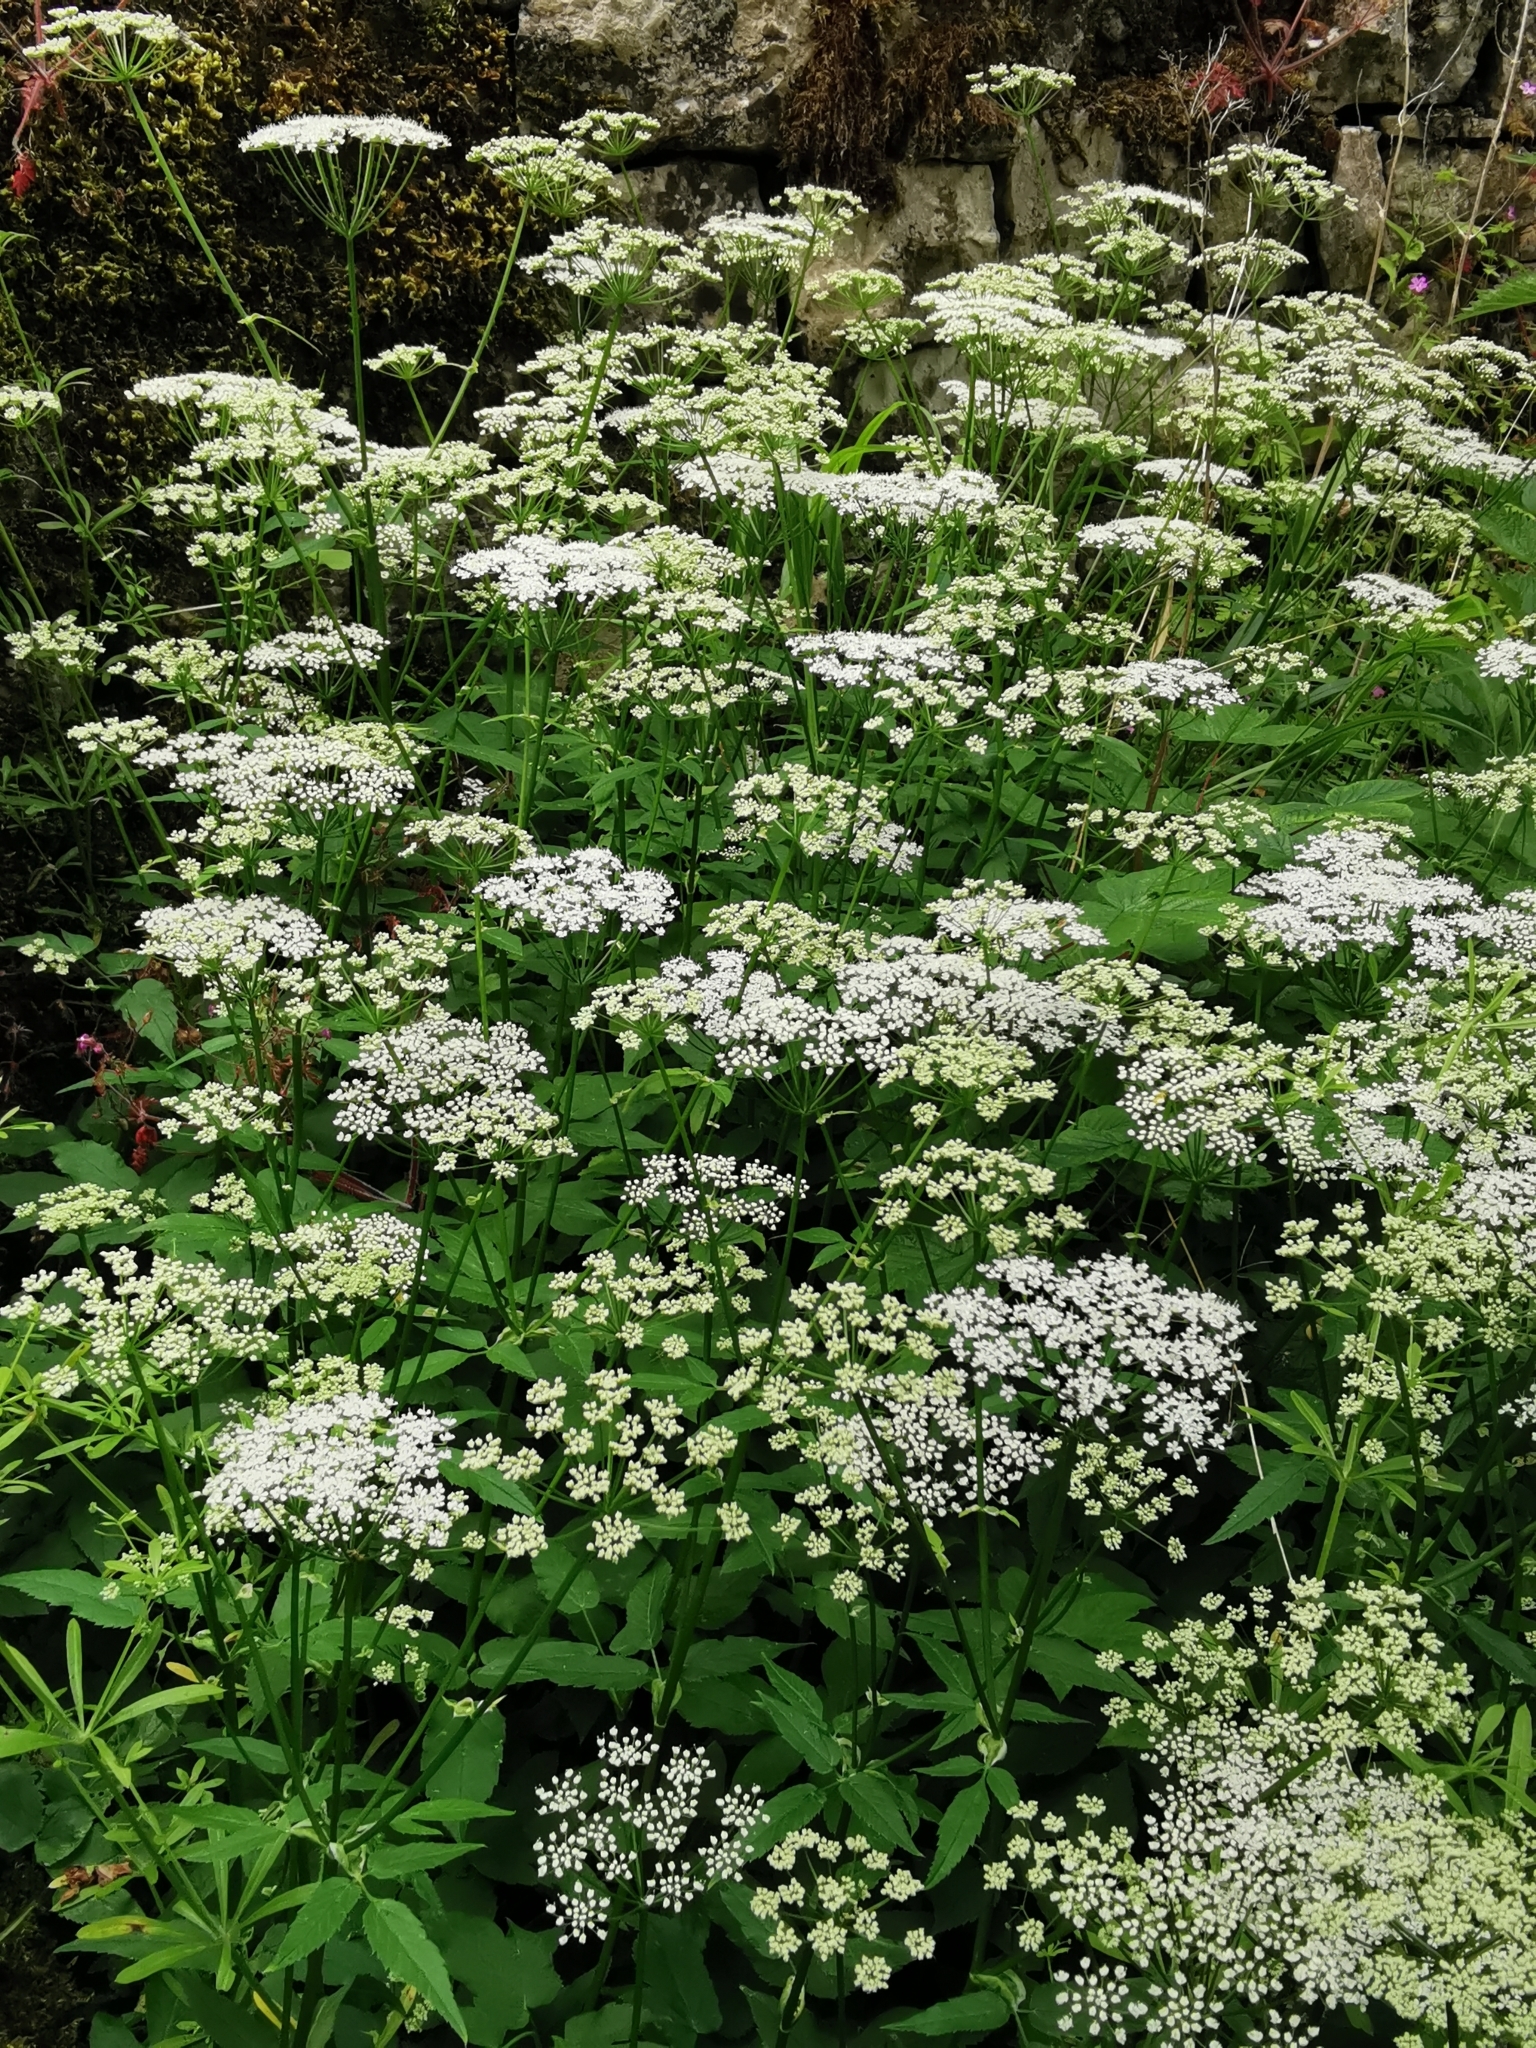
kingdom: Plantae
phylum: Tracheophyta
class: Magnoliopsida
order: Apiales
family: Apiaceae
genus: Aegopodium
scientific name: Aegopodium podagraria
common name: Ground-elder
